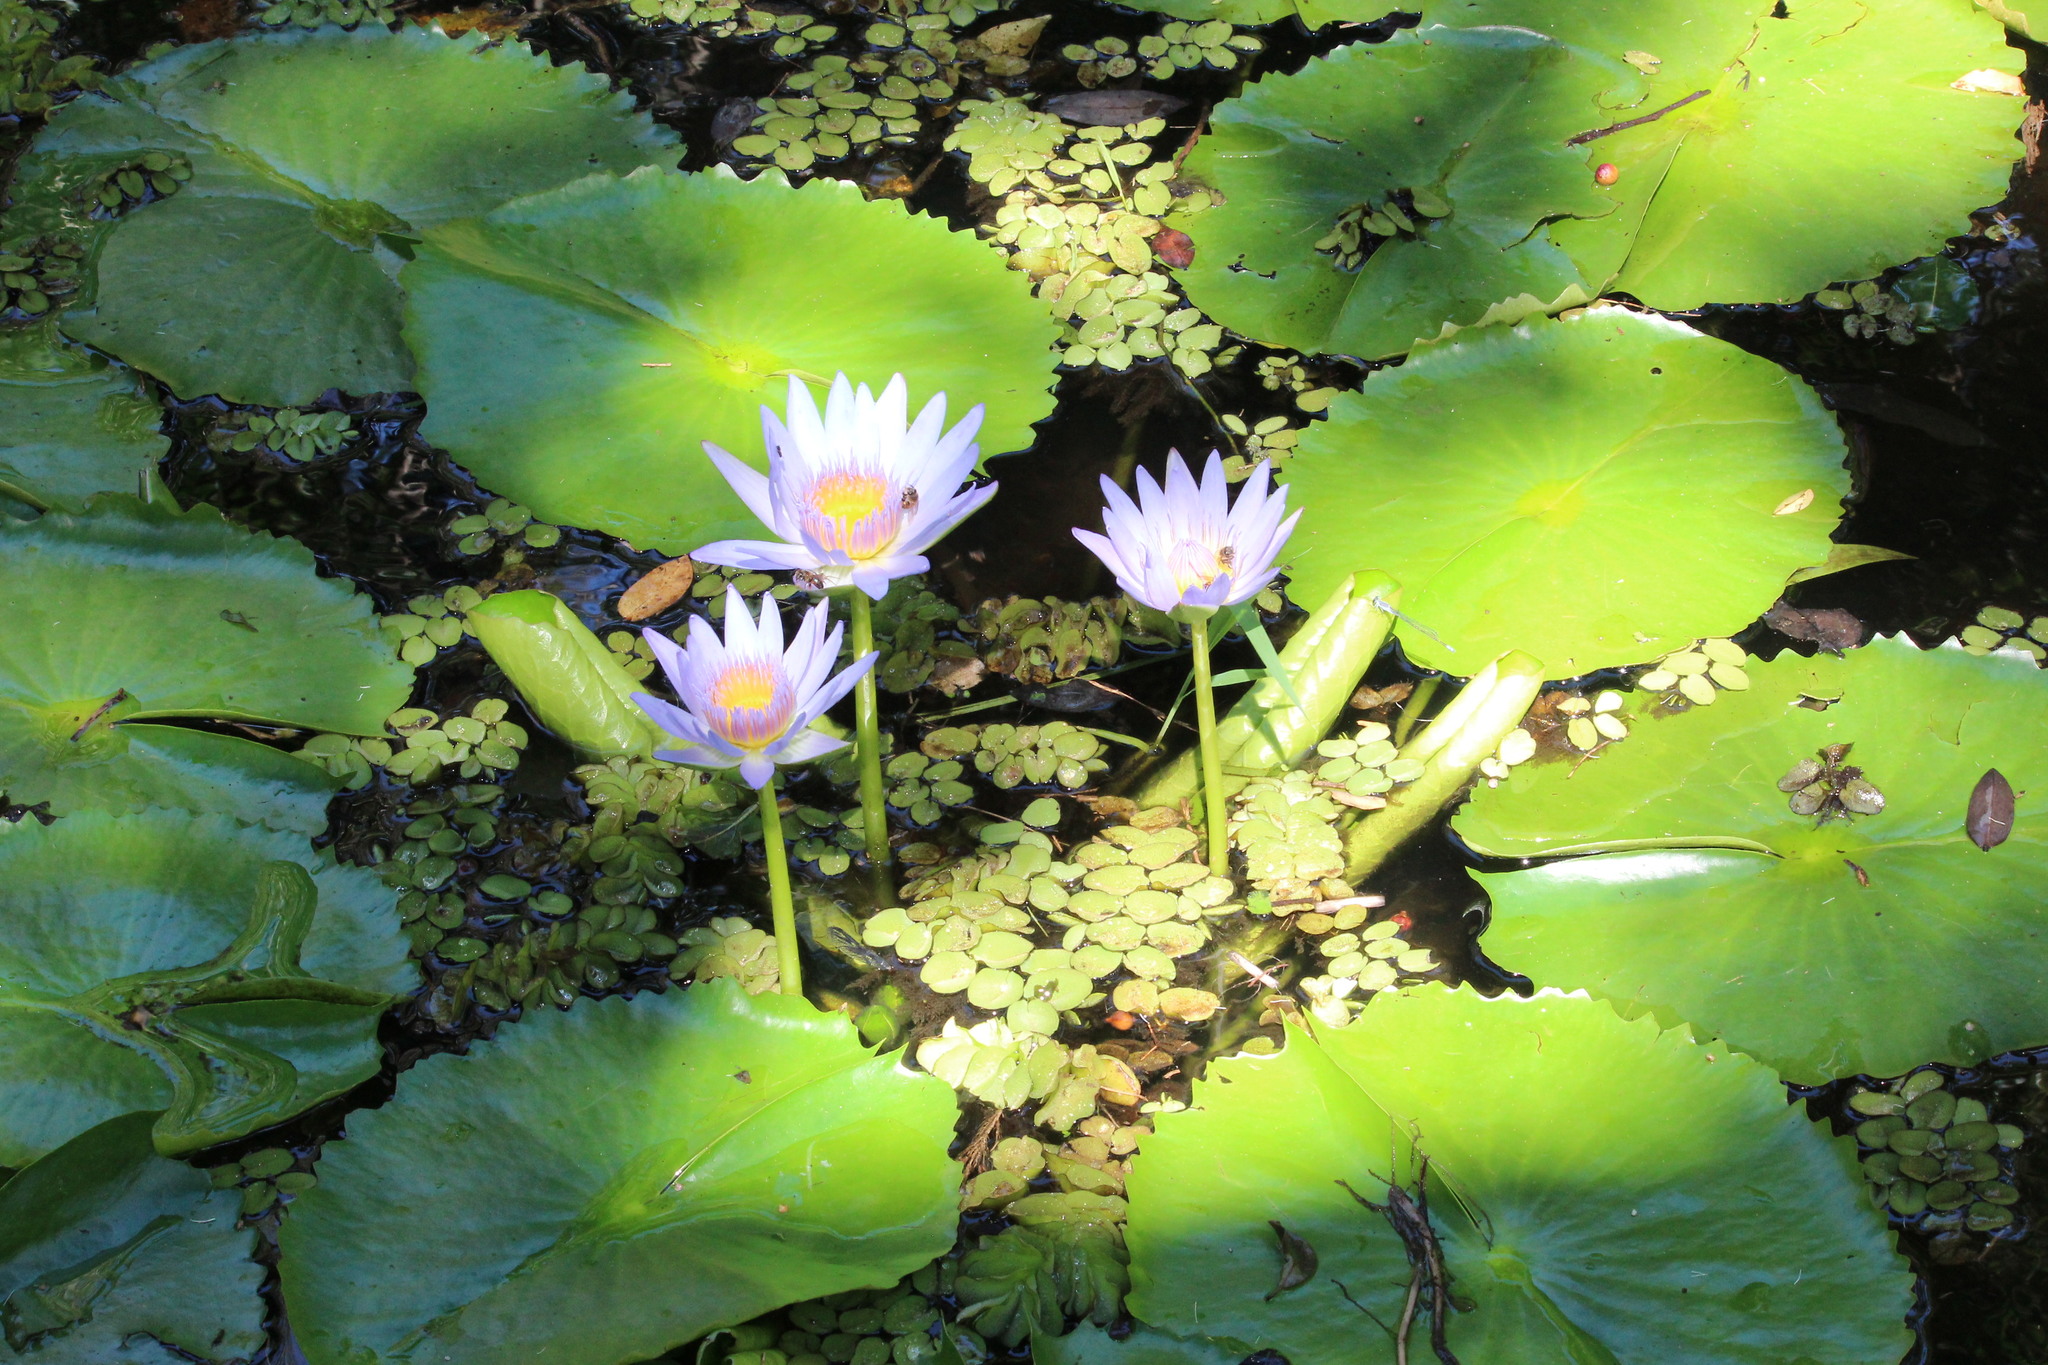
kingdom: Plantae
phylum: Tracheophyta
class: Magnoliopsida
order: Nymphaeales
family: Nymphaeaceae
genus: Nymphaea
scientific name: Nymphaea nouchali
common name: Blue lotus
